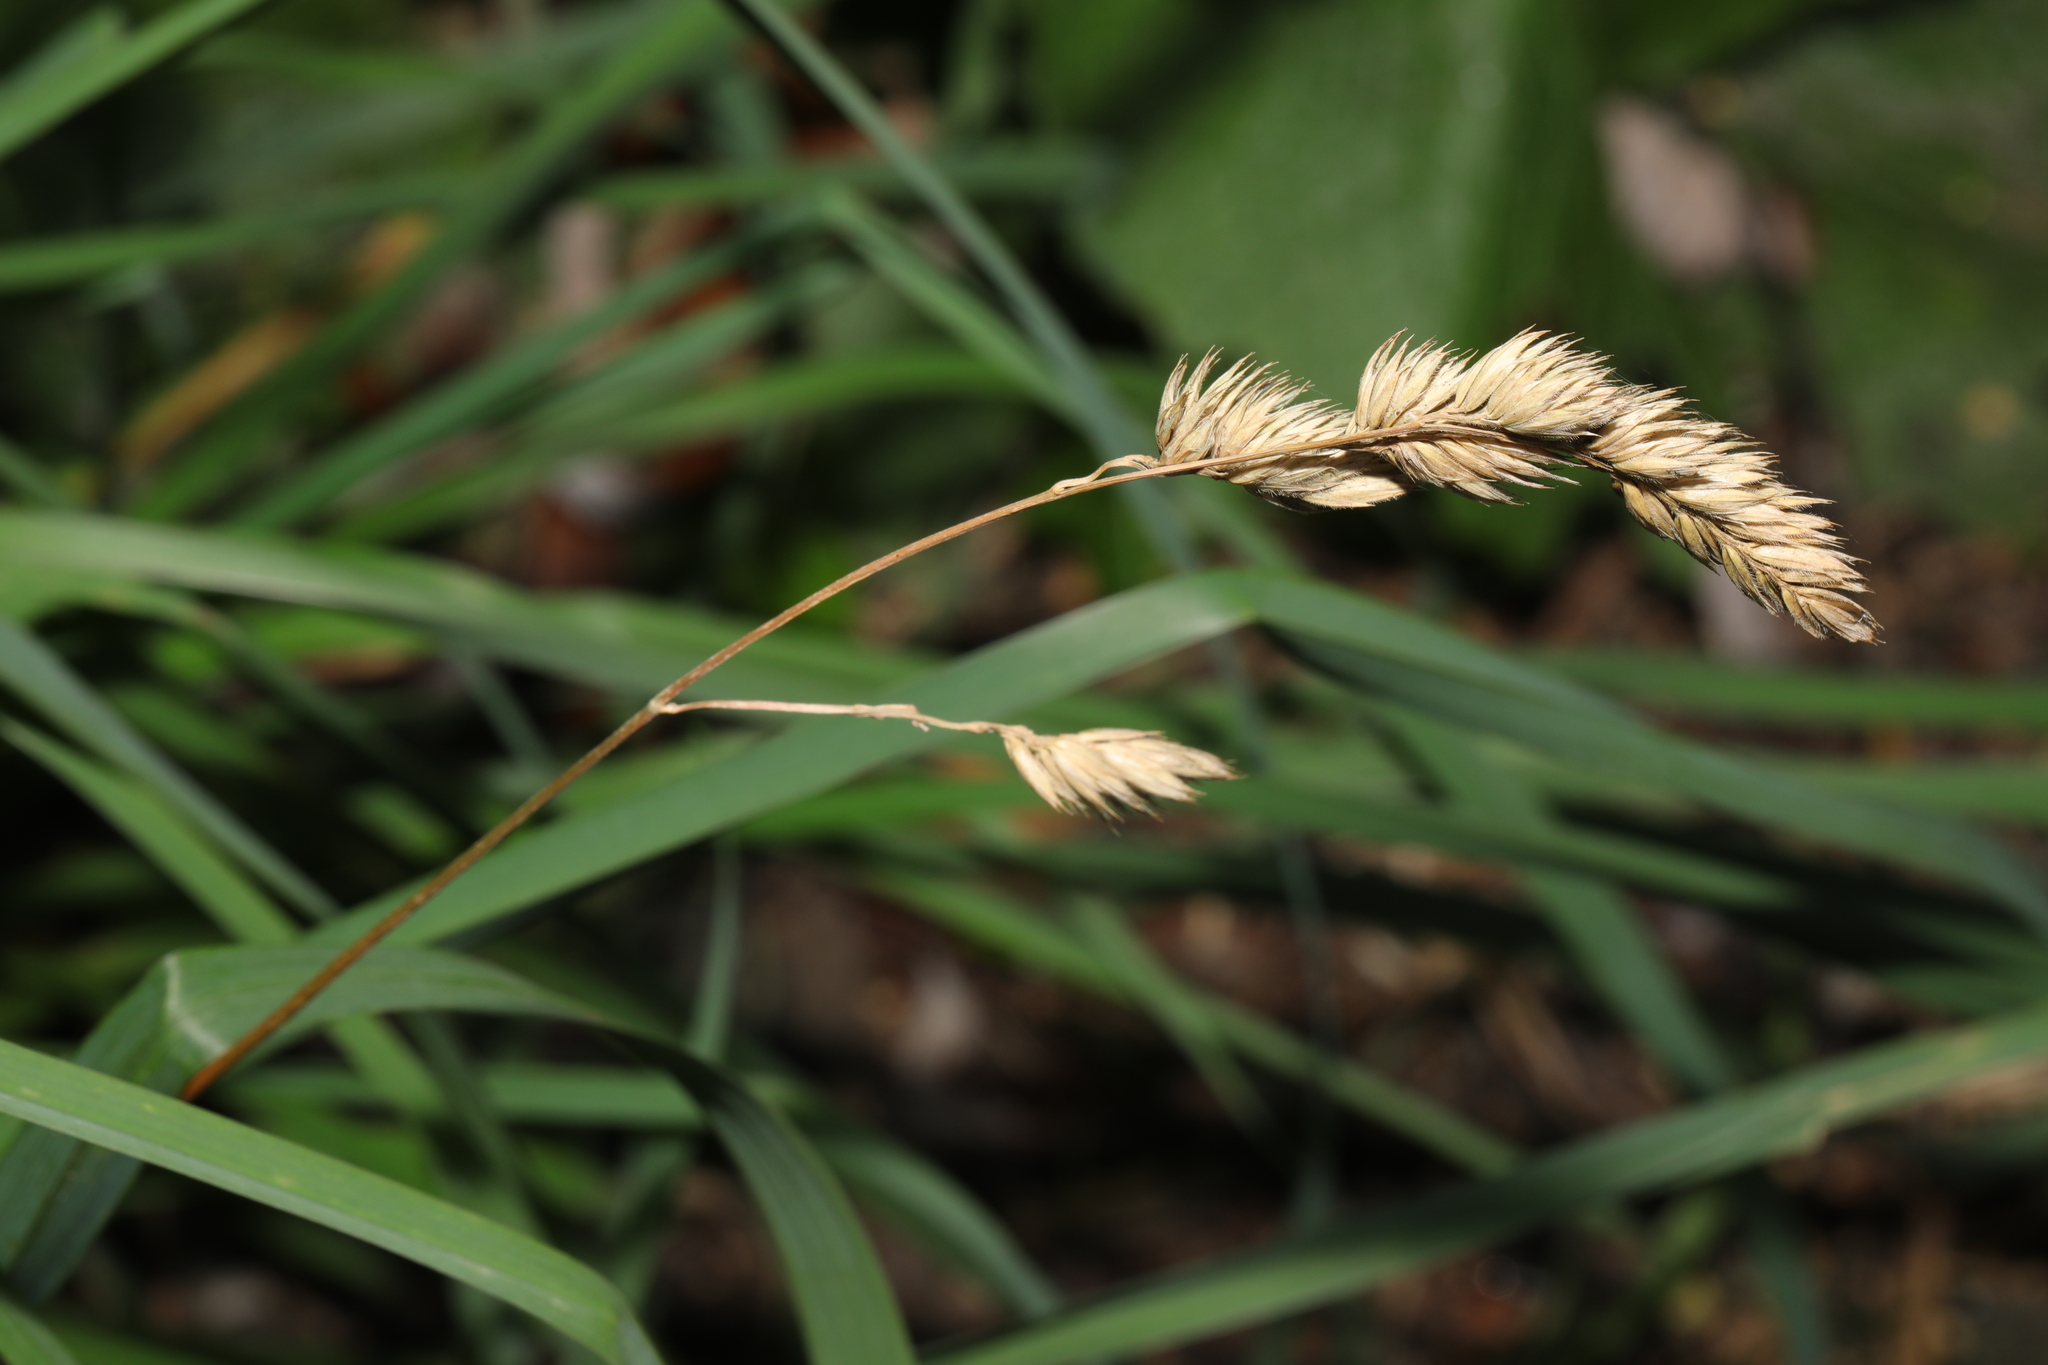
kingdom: Plantae
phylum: Tracheophyta
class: Liliopsida
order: Poales
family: Poaceae
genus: Dactylis
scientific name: Dactylis glomerata
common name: Orchardgrass
